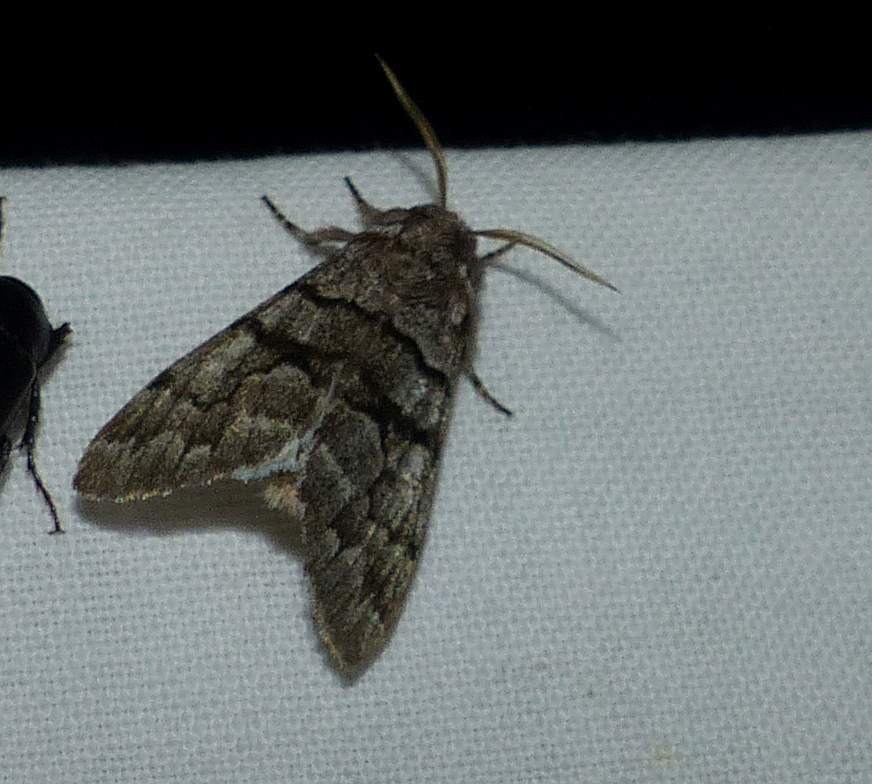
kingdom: Animalia
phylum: Arthropoda
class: Insecta
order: Lepidoptera
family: Noctuidae
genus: Panthea
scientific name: Panthea furcilla
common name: Eastern panthea moth
